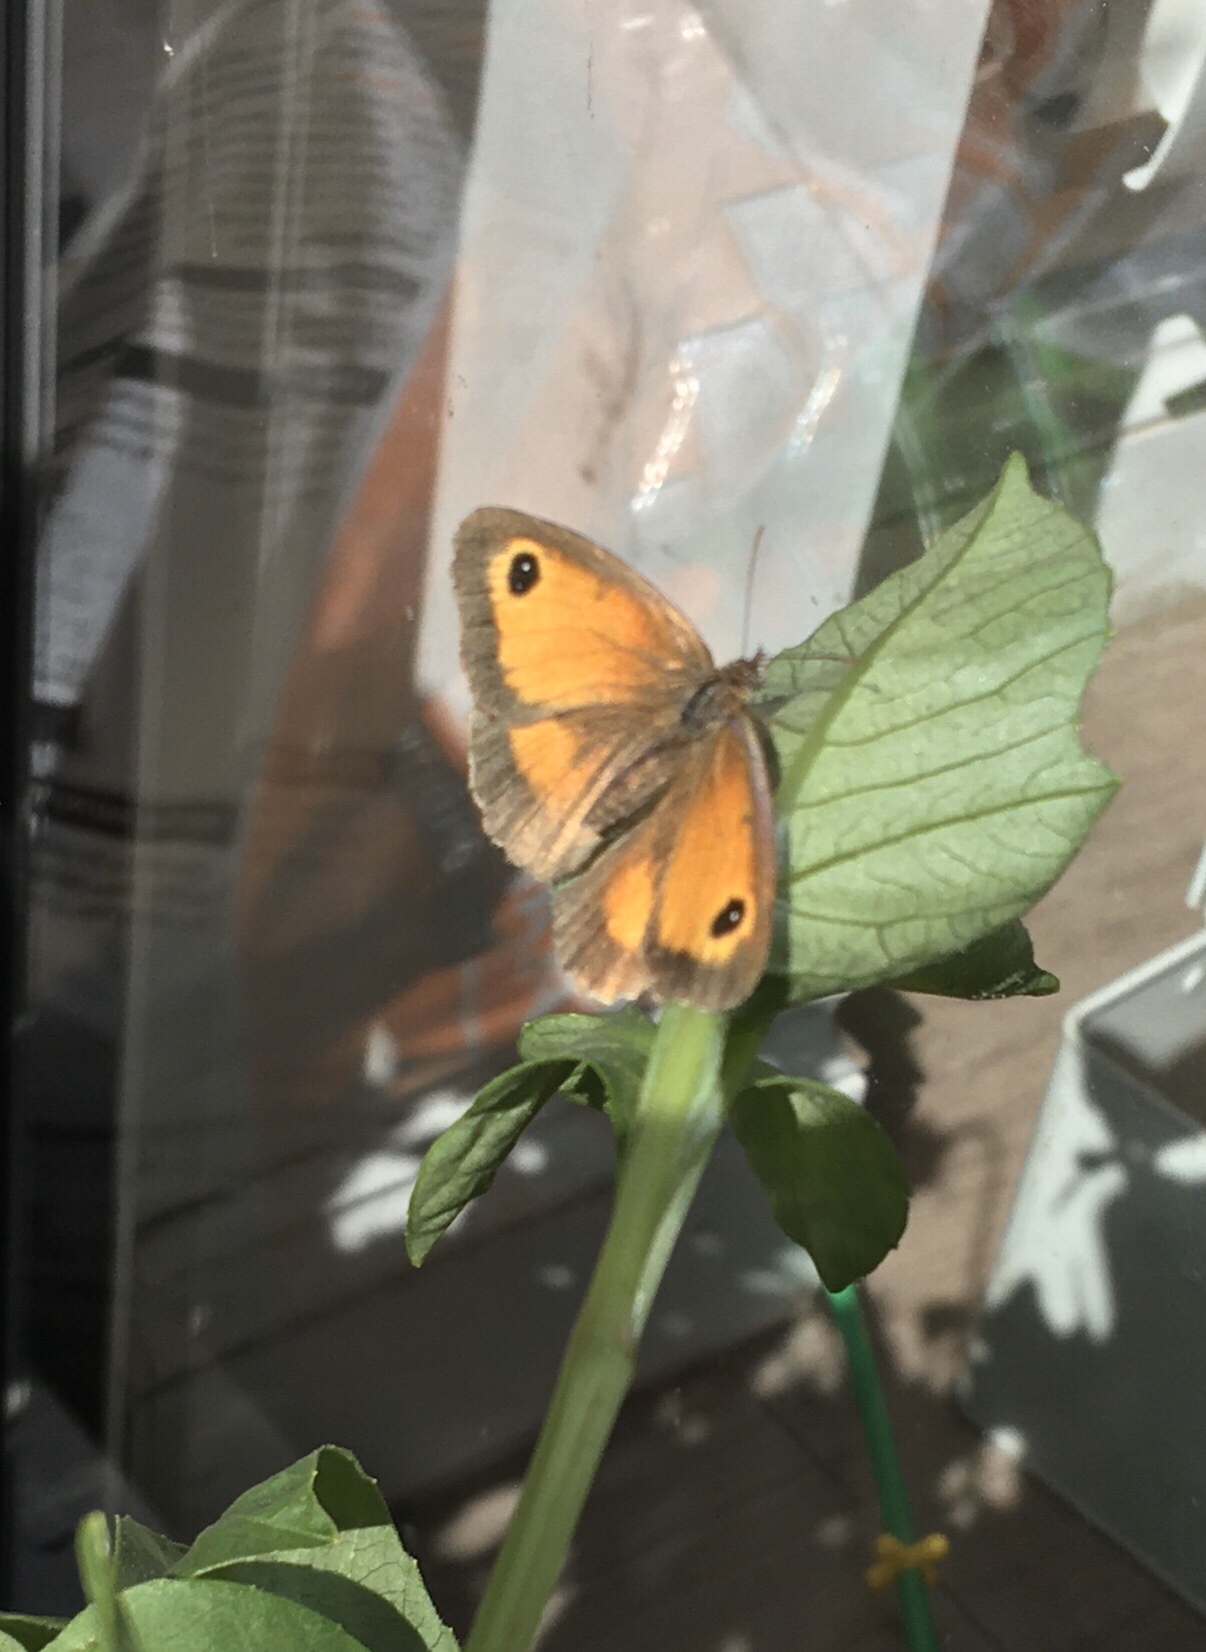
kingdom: Animalia
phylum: Arthropoda
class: Insecta
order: Lepidoptera
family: Nymphalidae
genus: Pyronia
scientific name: Pyronia tithonus
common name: Gatekeeper
